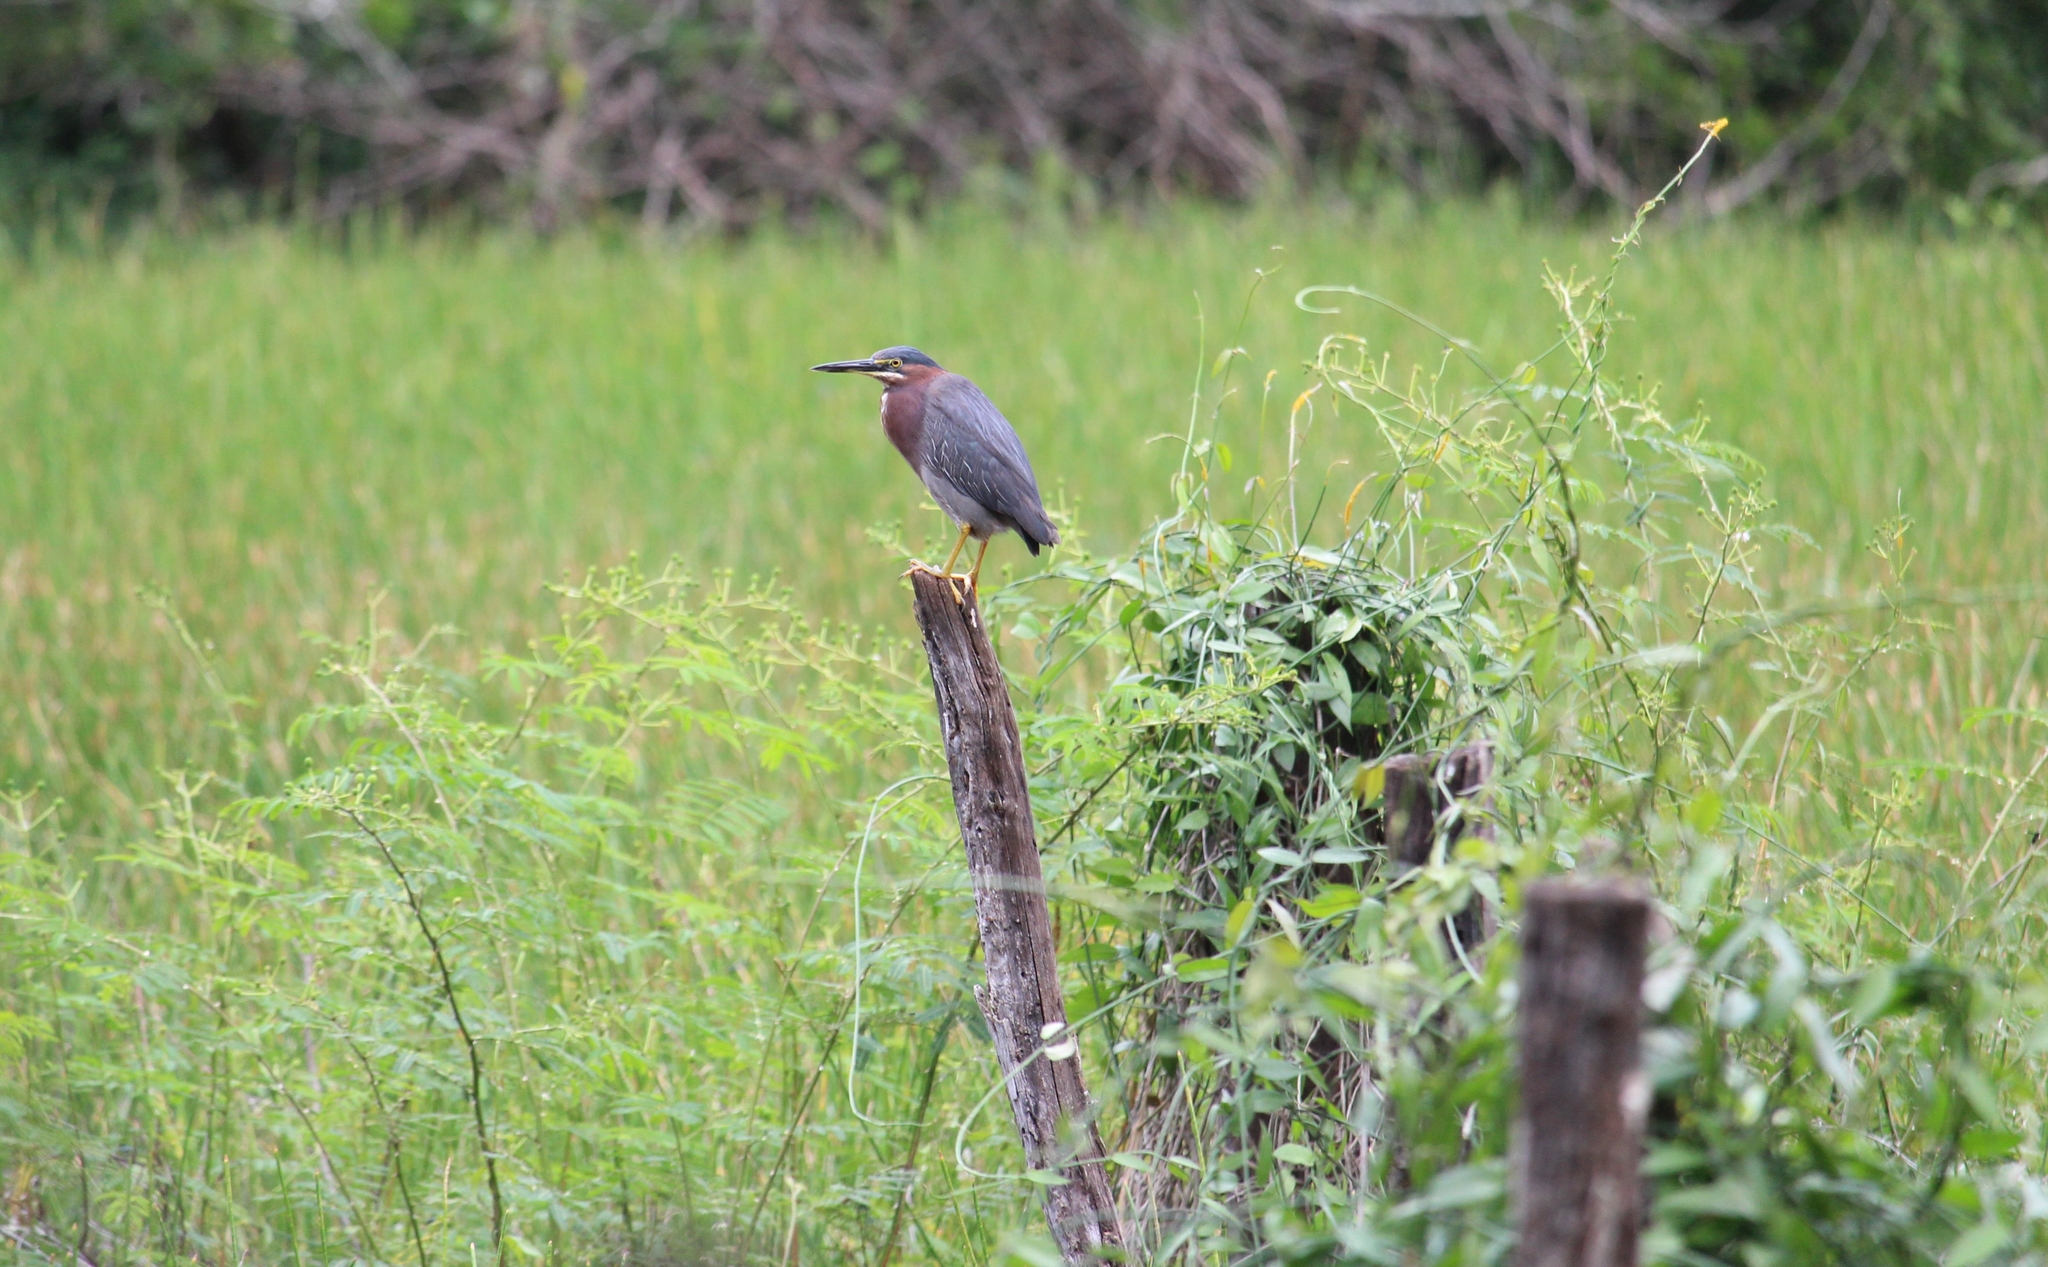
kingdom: Animalia
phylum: Chordata
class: Aves
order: Pelecaniformes
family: Ardeidae
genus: Butorides
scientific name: Butorides virescens
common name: Green heron
